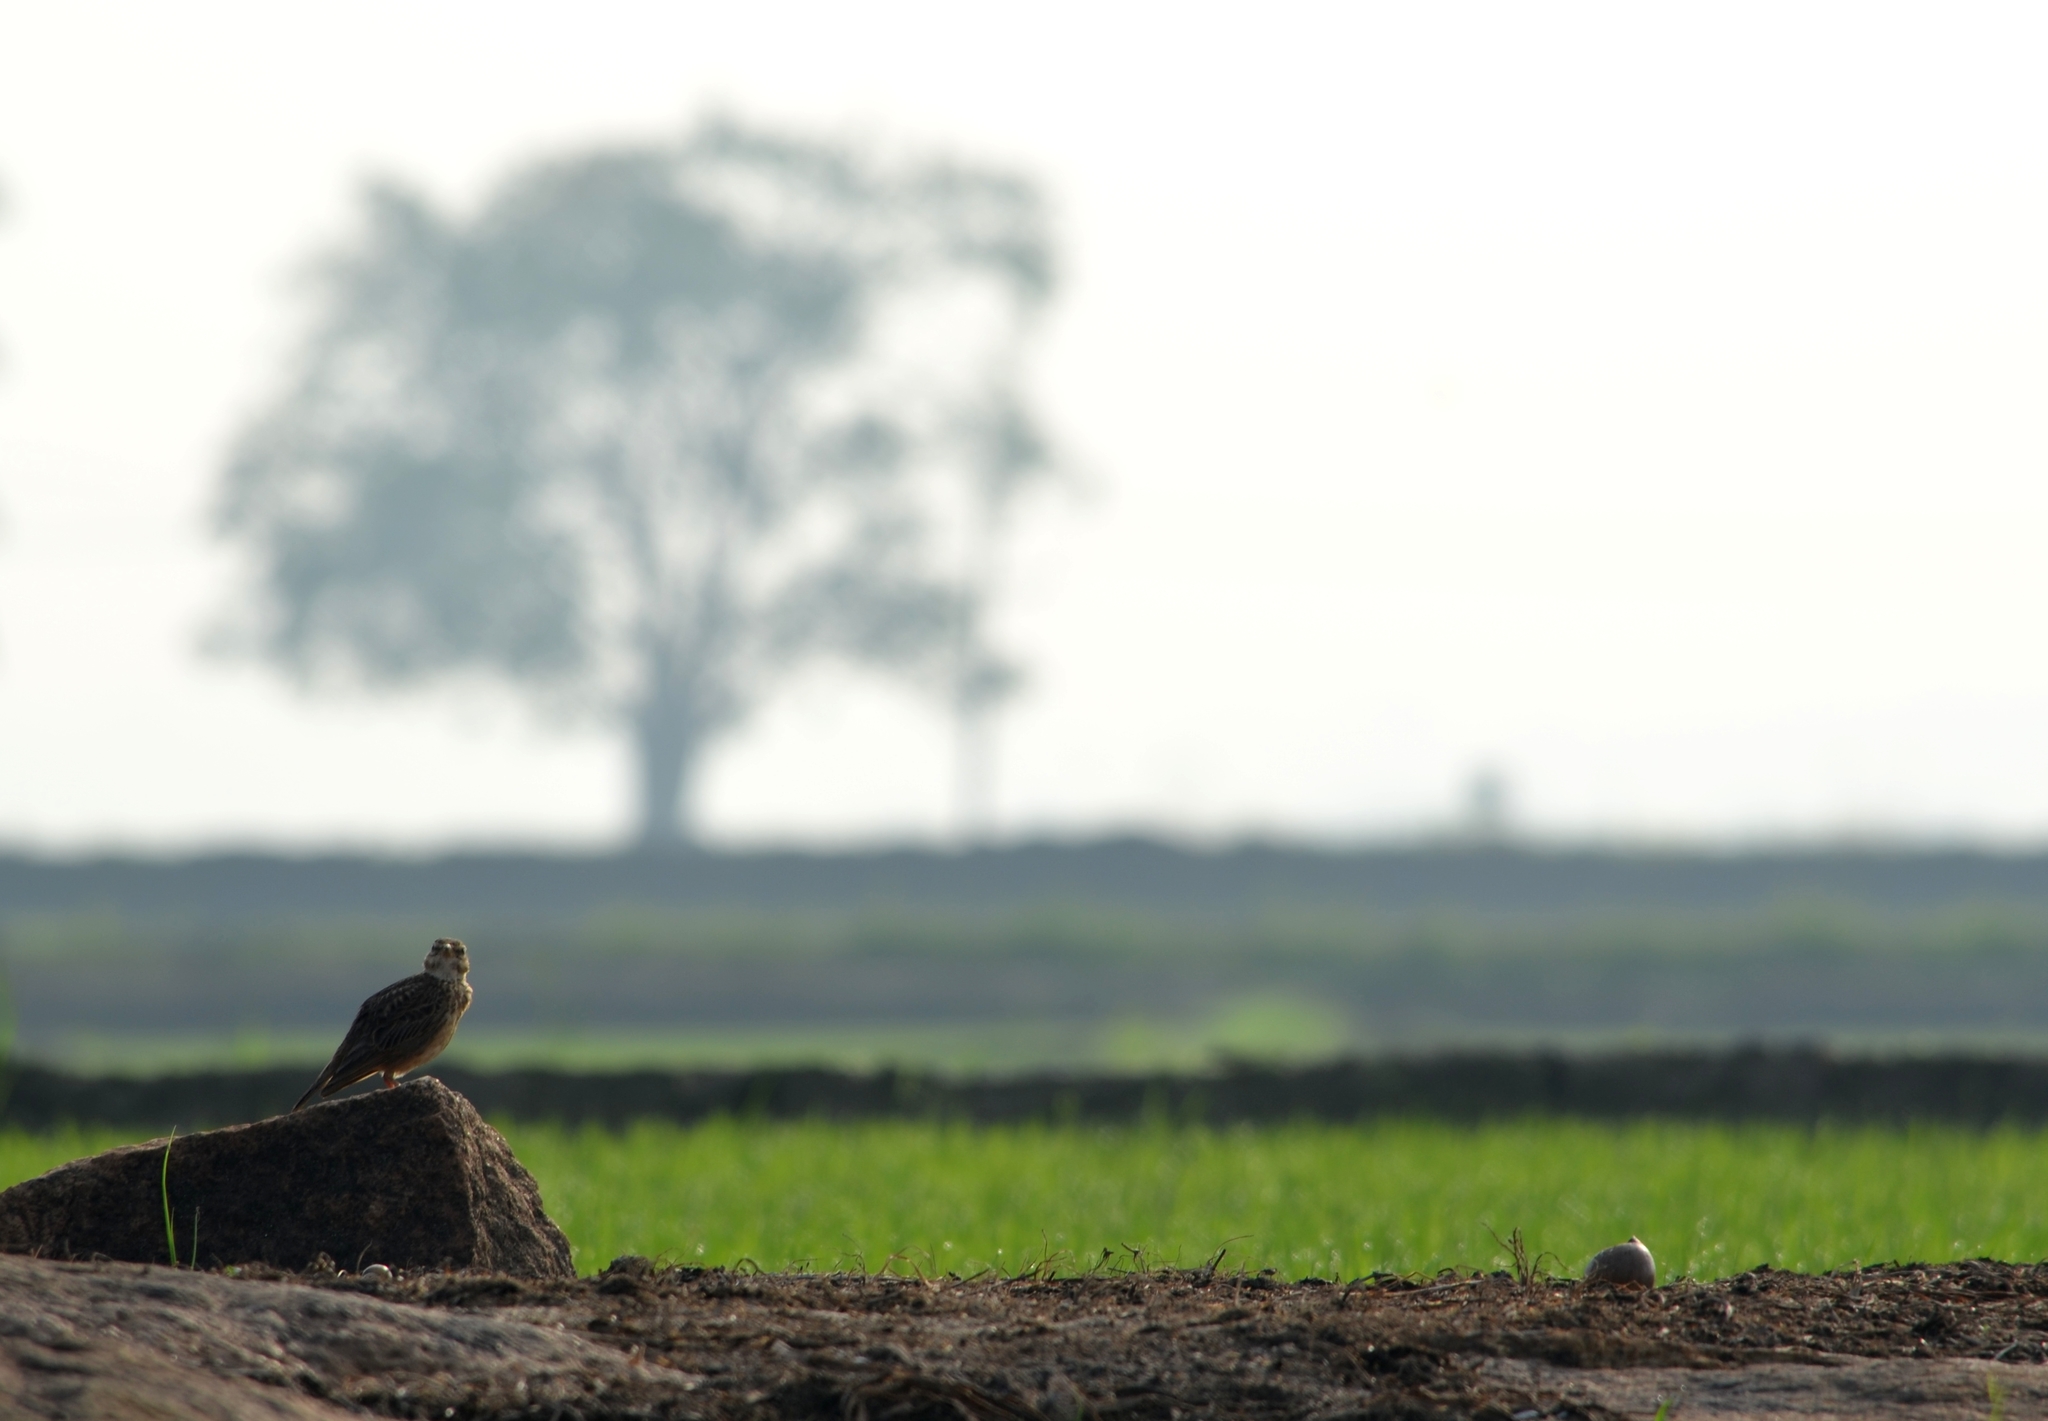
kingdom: Animalia
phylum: Chordata
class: Aves
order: Passeriformes
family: Motacillidae
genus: Anthus
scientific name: Anthus rufulus
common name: Paddyfield pipit
